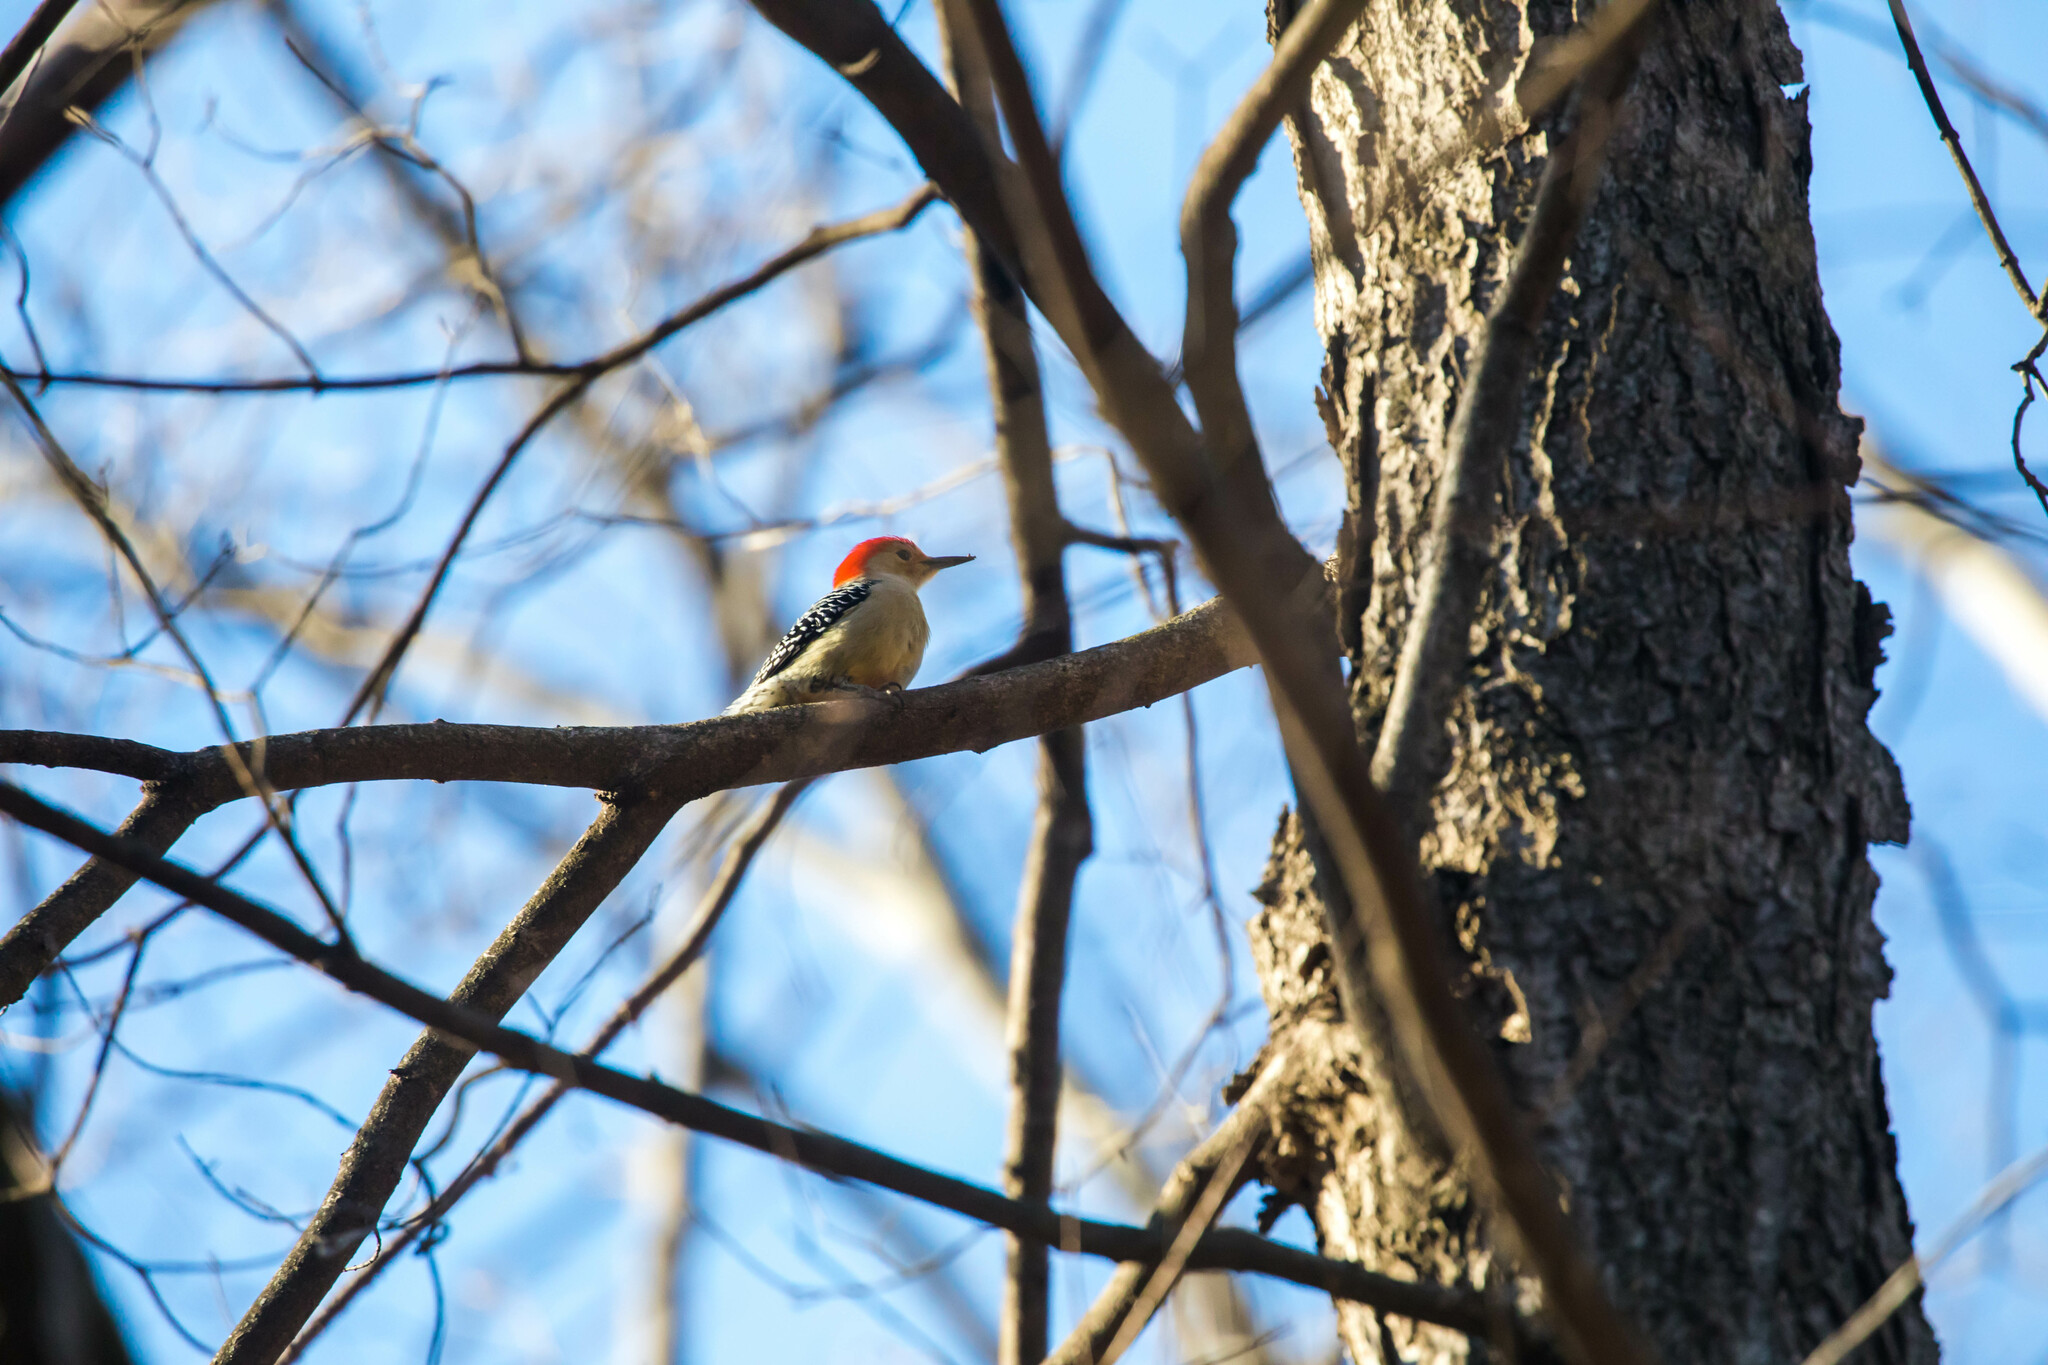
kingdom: Animalia
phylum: Chordata
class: Aves
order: Piciformes
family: Picidae
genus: Melanerpes
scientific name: Melanerpes carolinus
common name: Red-bellied woodpecker
